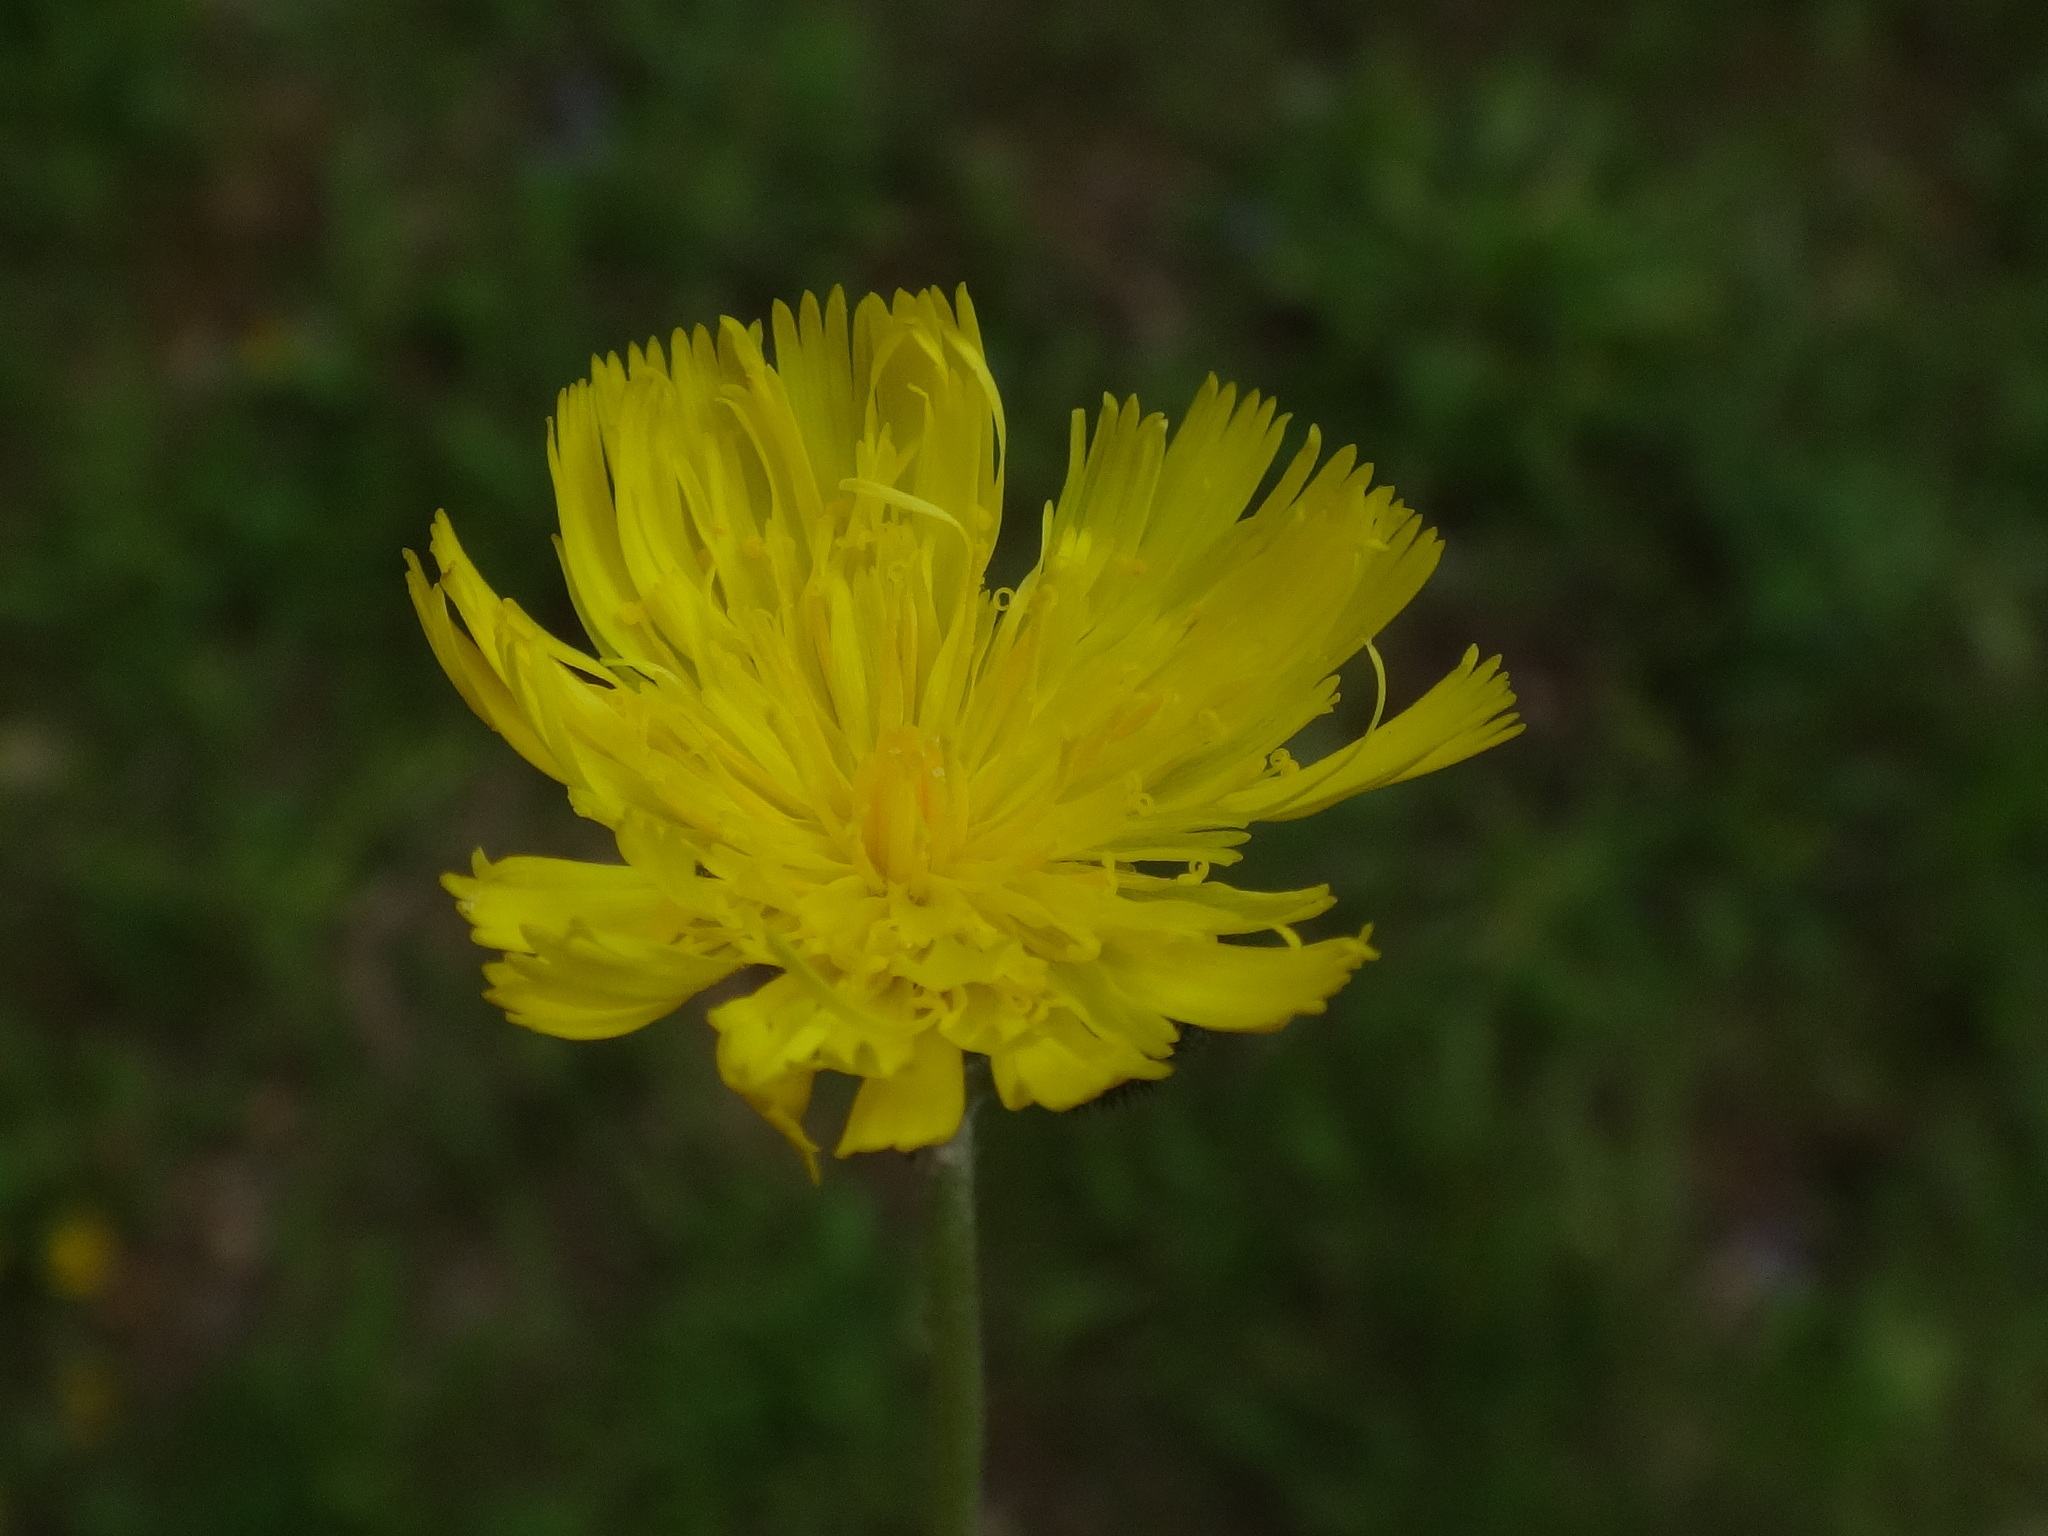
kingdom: Plantae
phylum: Tracheophyta
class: Magnoliopsida
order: Asterales
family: Asteraceae
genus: Pilosella
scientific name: Pilosella lactucella
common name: Glaucous fox-and-cubs
